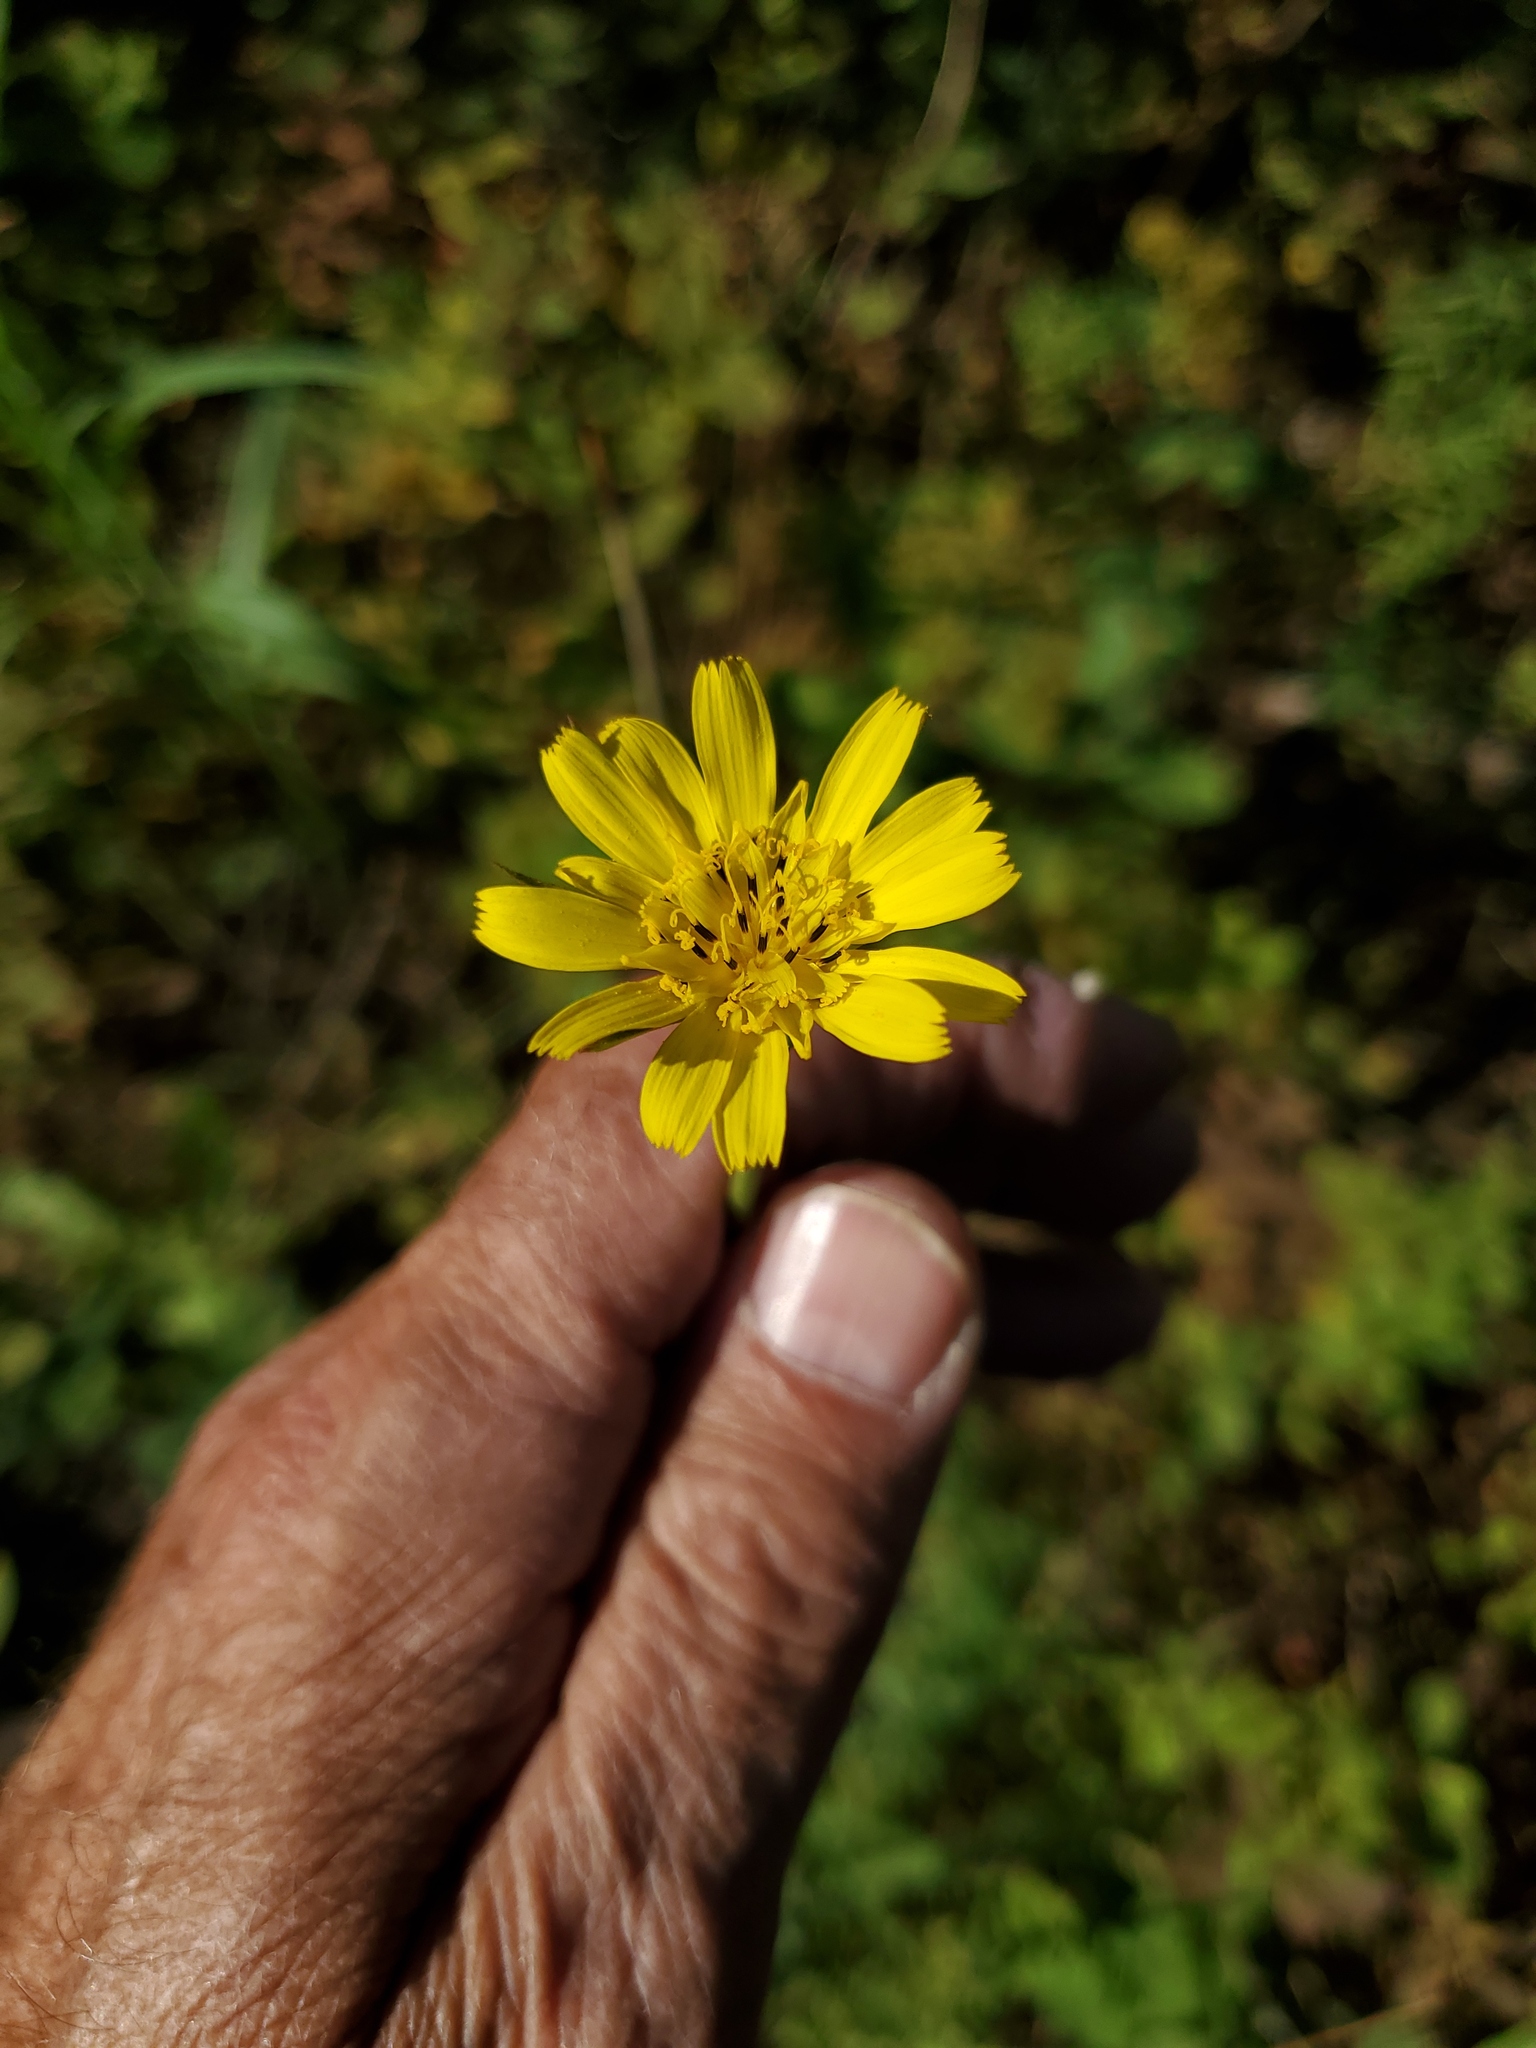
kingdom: Plantae
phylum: Tracheophyta
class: Magnoliopsida
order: Asterales
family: Asteraceae
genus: Tragopogon
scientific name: Tragopogon dubius
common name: Yellow salsify
